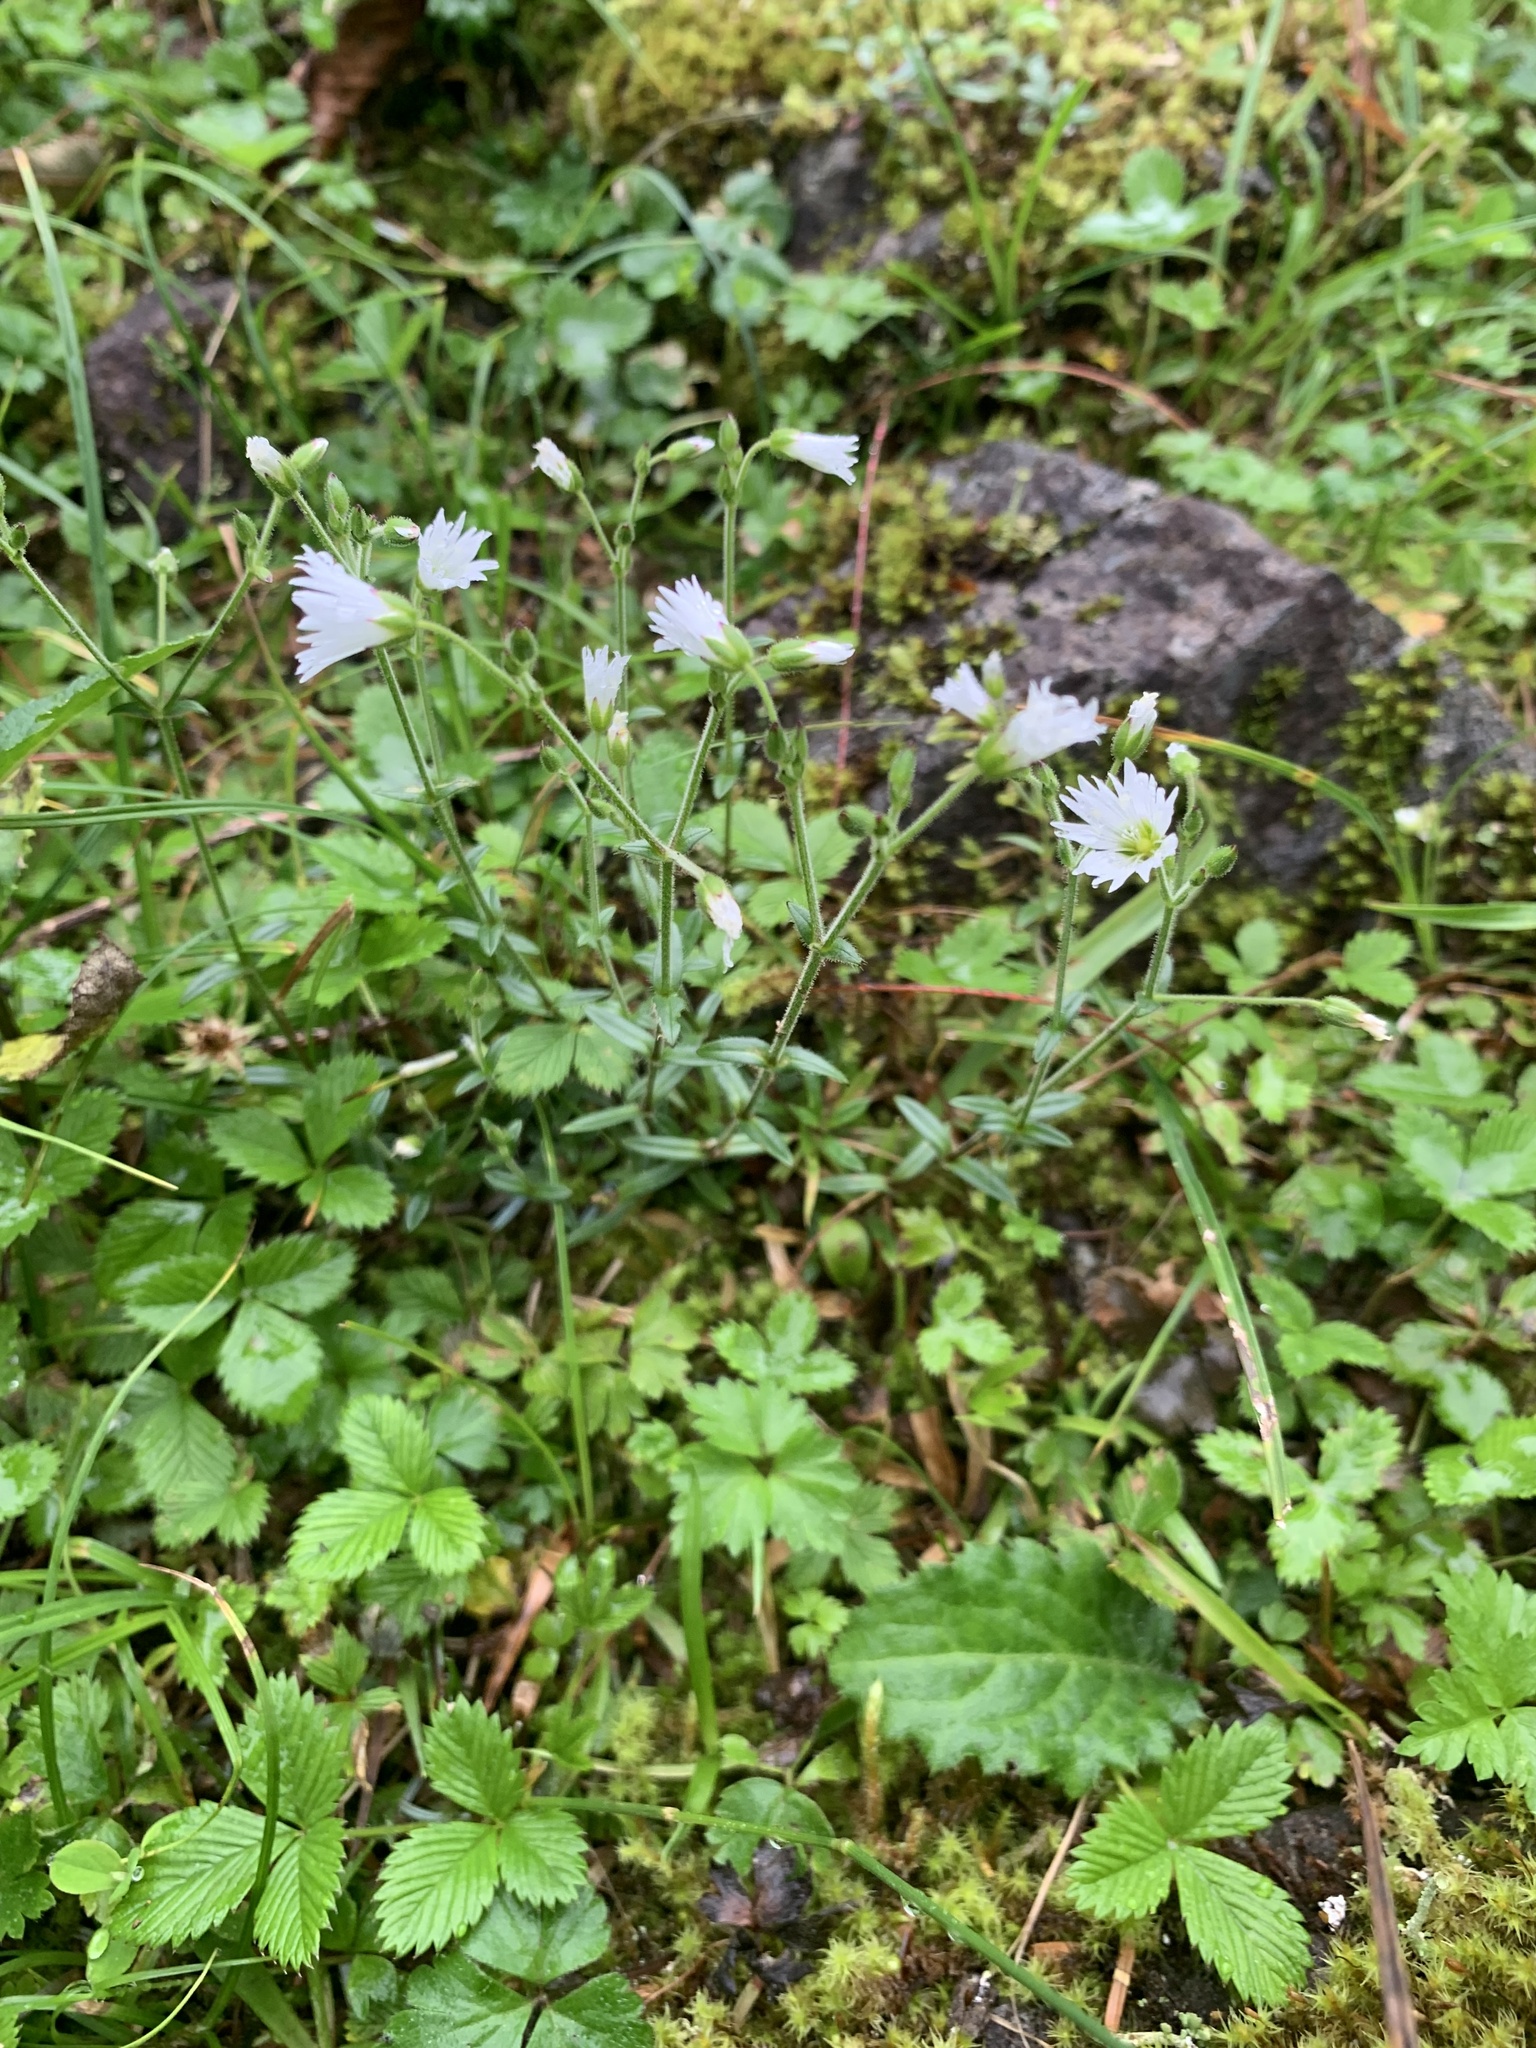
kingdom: Plantae
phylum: Tracheophyta
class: Magnoliopsida
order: Caryophyllales
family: Caryophyllaceae
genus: Cerastium
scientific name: Cerastium schizopetalum
